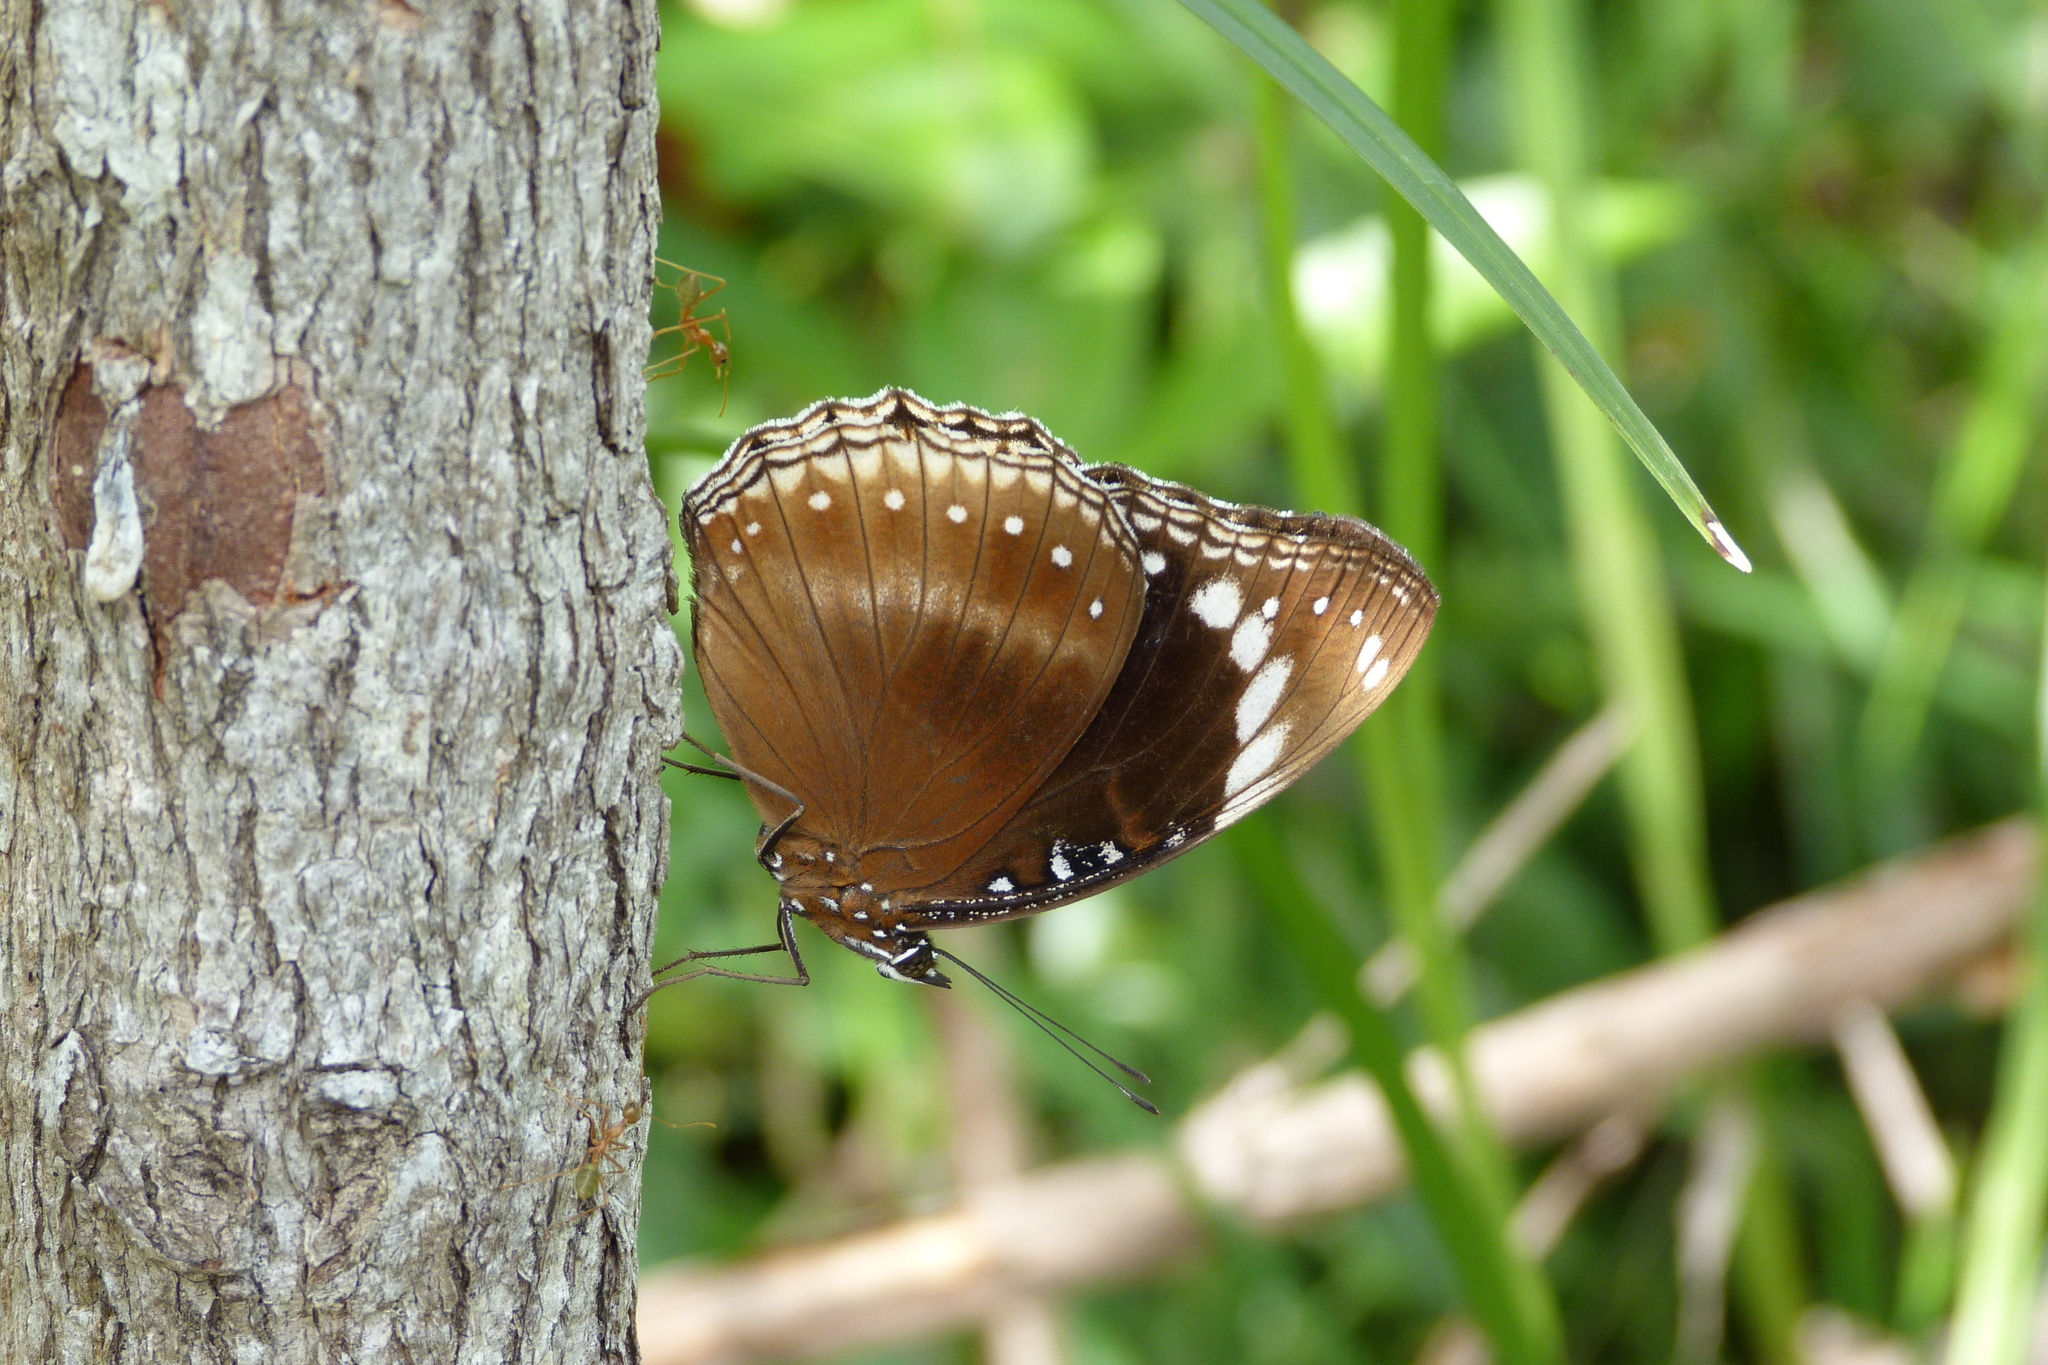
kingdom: Animalia
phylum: Arthropoda
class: Insecta
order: Lepidoptera
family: Nymphalidae
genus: Hypolimnas
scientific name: Hypolimnas bolina
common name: Great eggfly
